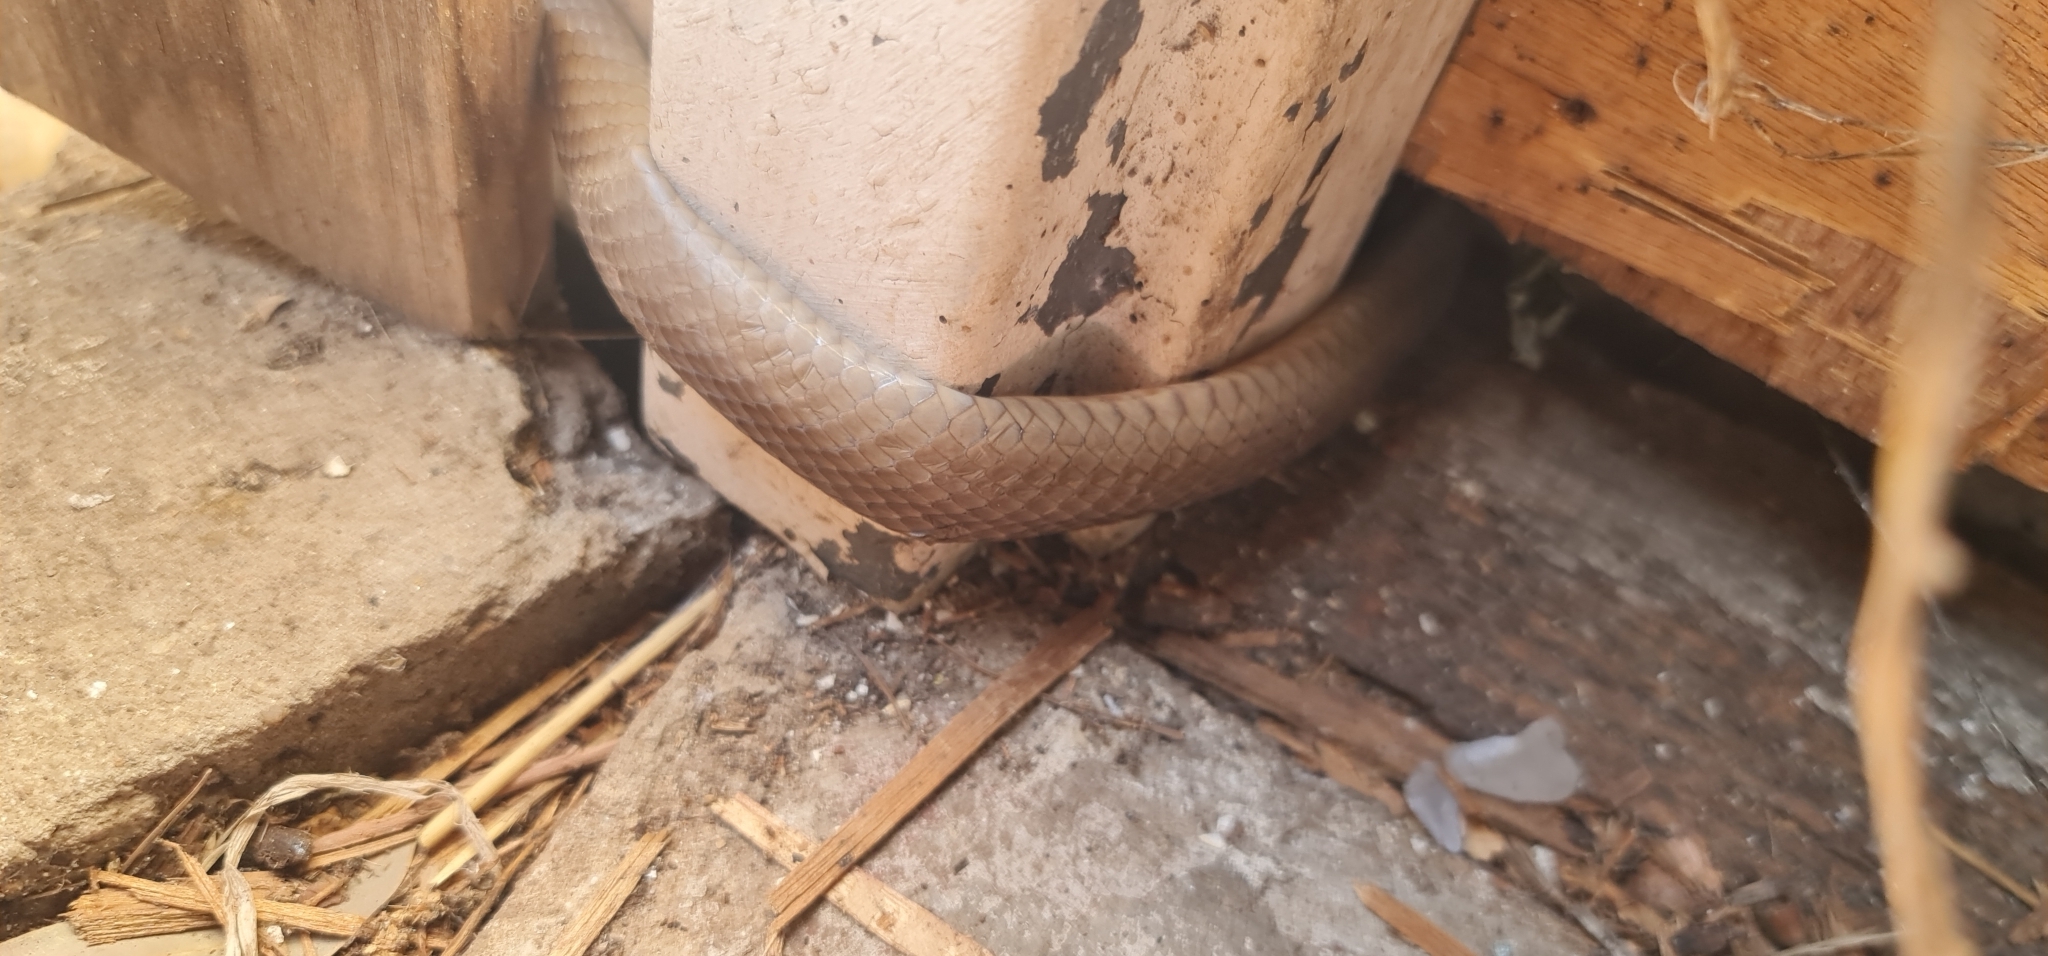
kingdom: Animalia
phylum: Chordata
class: Squamata
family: Elapidae
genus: Pseudonaja
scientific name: Pseudonaja textilis
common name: Eastern brown snake
